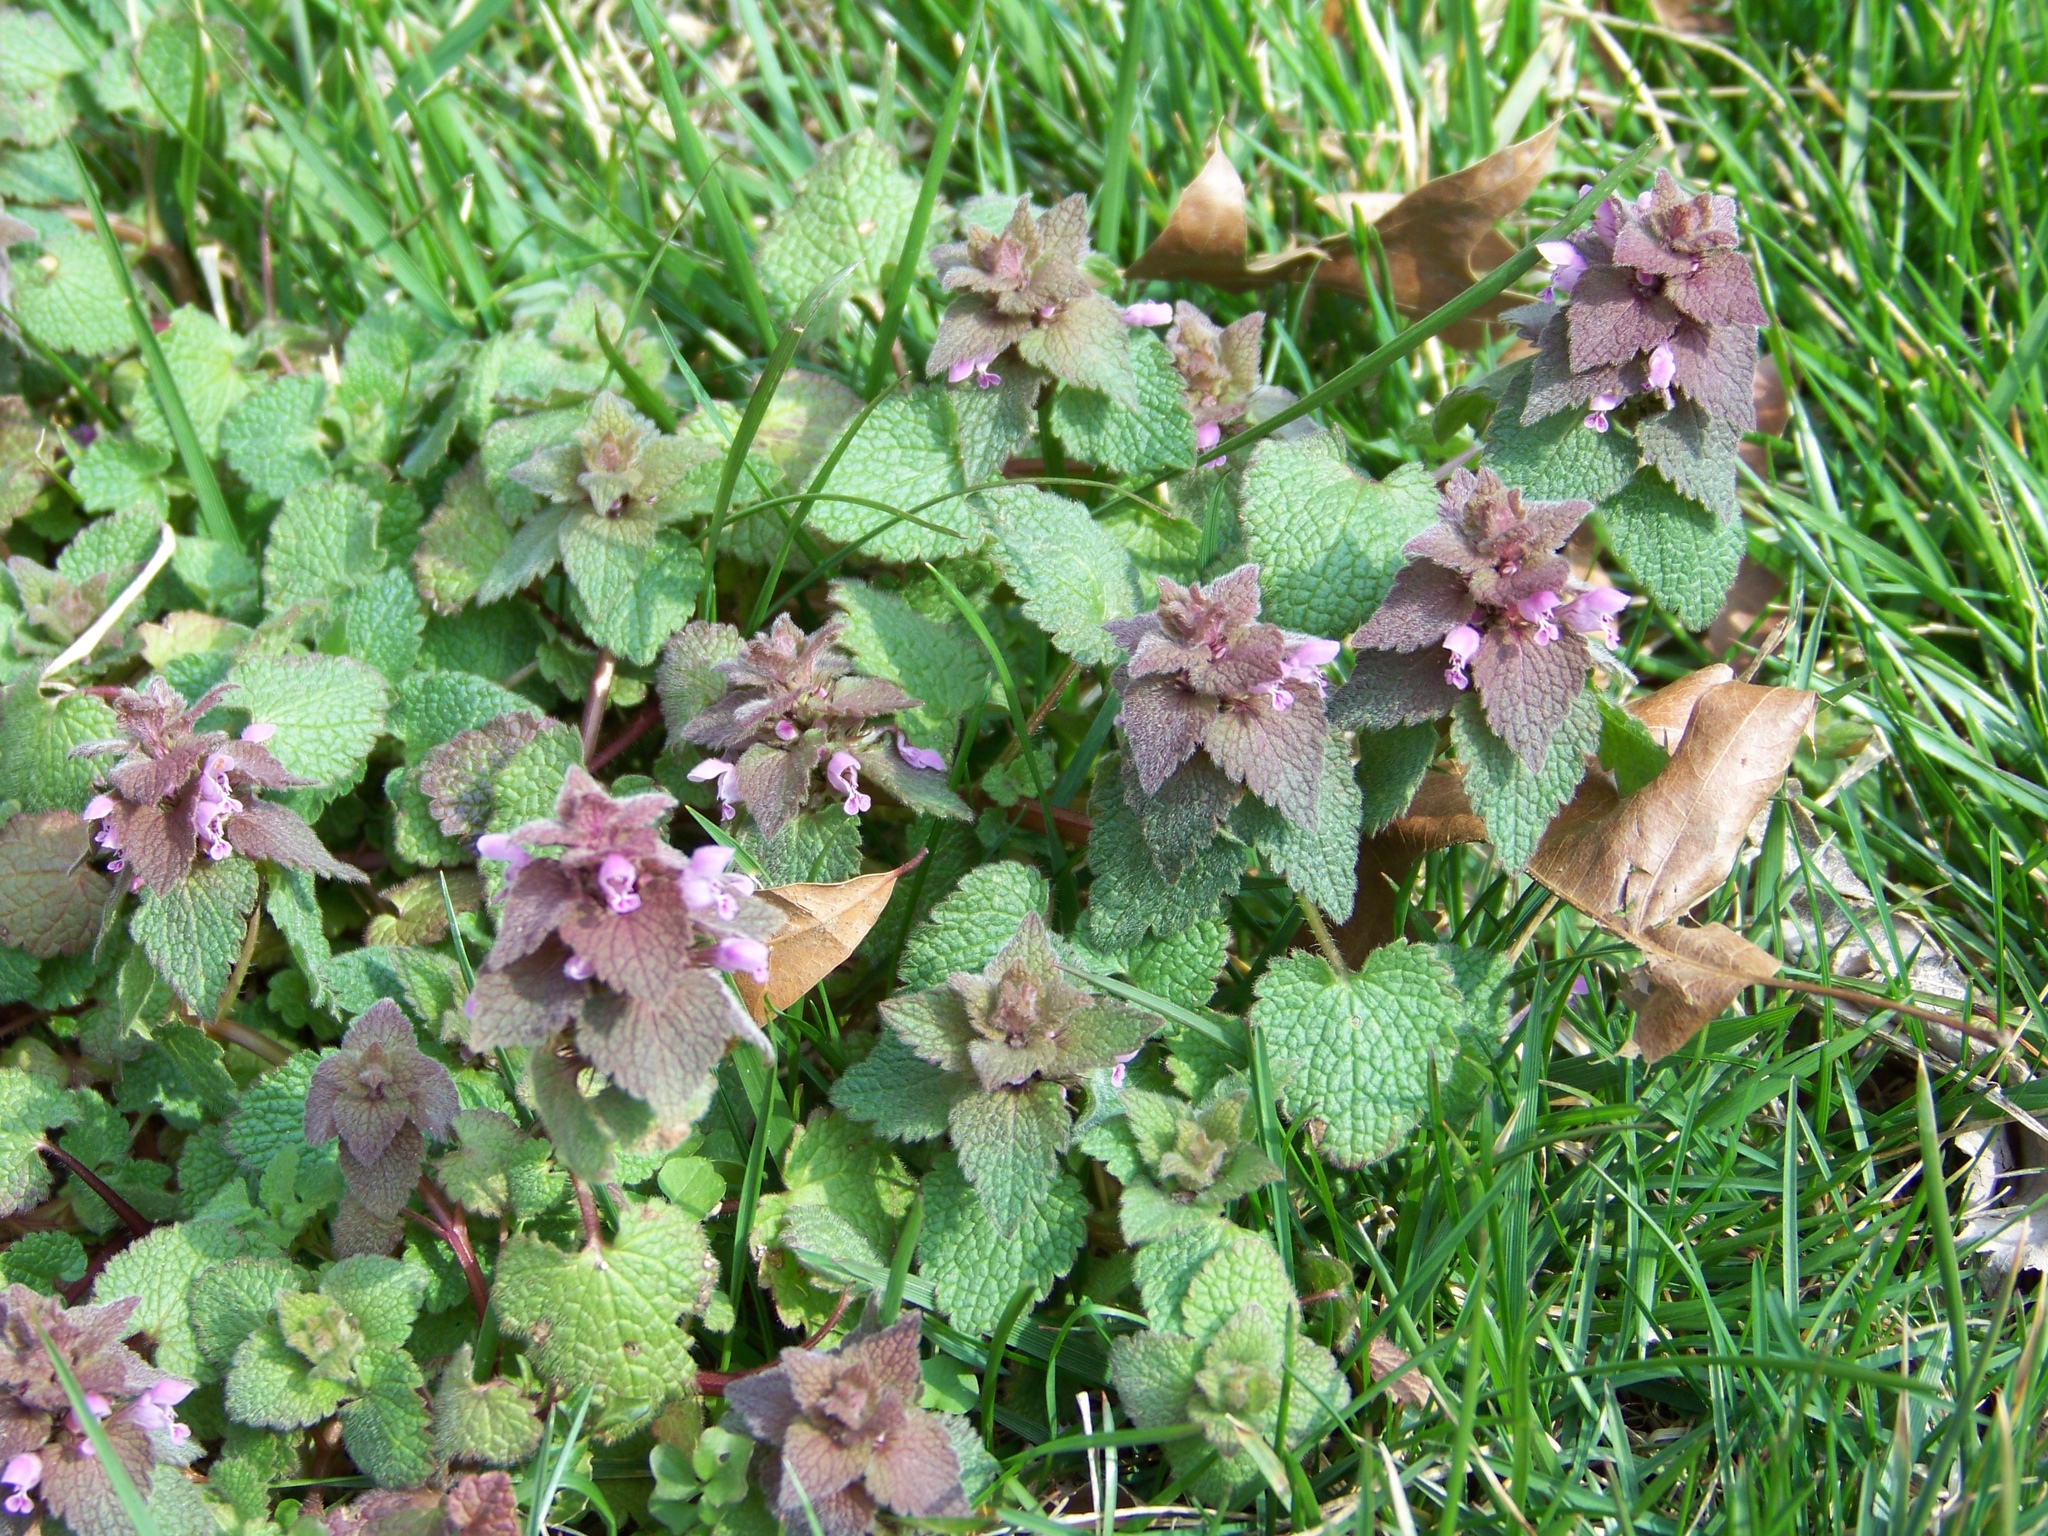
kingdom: Plantae
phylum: Tracheophyta
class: Magnoliopsida
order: Lamiales
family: Lamiaceae
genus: Lamium
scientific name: Lamium purpureum
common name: Red dead-nettle
